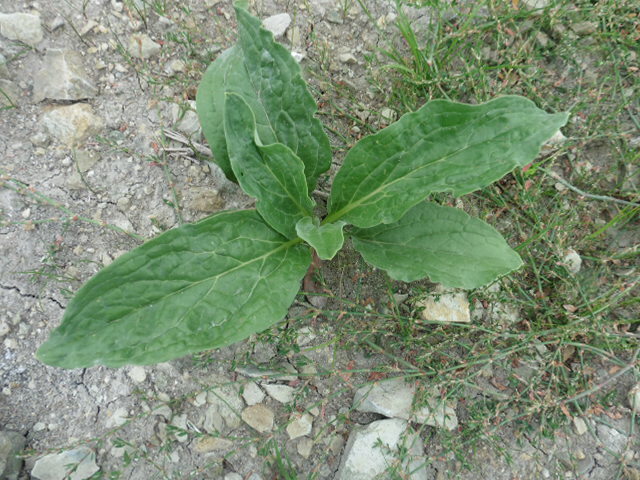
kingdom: Plantae
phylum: Tracheophyta
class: Magnoliopsida
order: Boraginales
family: Boraginaceae
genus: Cynoglossum
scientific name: Cynoglossum officinale
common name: Hound's-tongue
